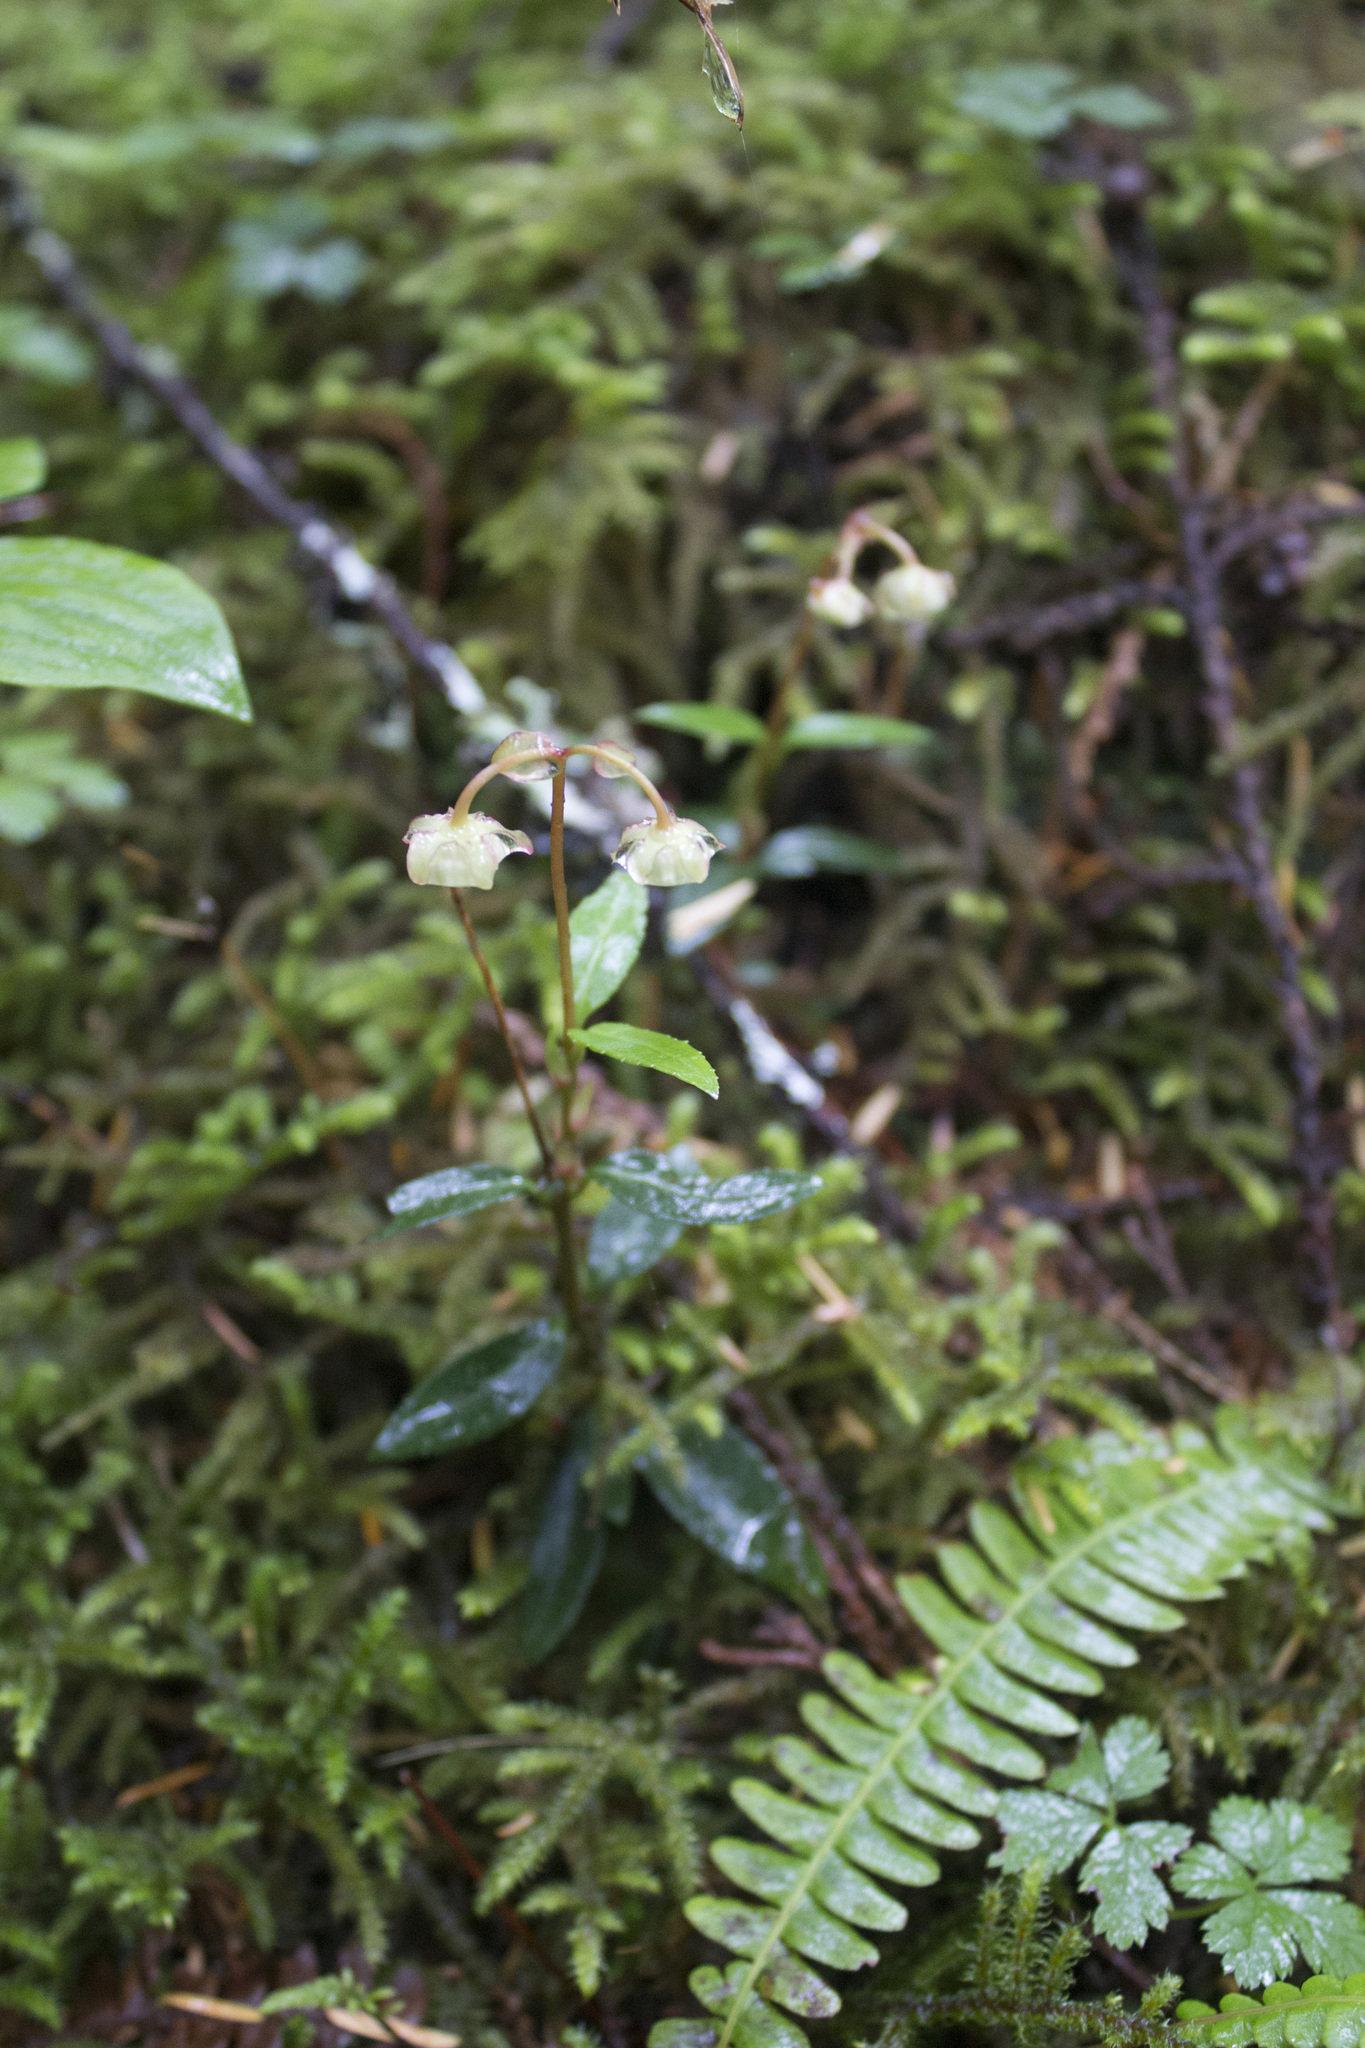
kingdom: Plantae
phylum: Tracheophyta
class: Magnoliopsida
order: Ericales
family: Ericaceae
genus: Chimaphila
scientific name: Chimaphila menziesii
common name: Menzies' pipsissewa
